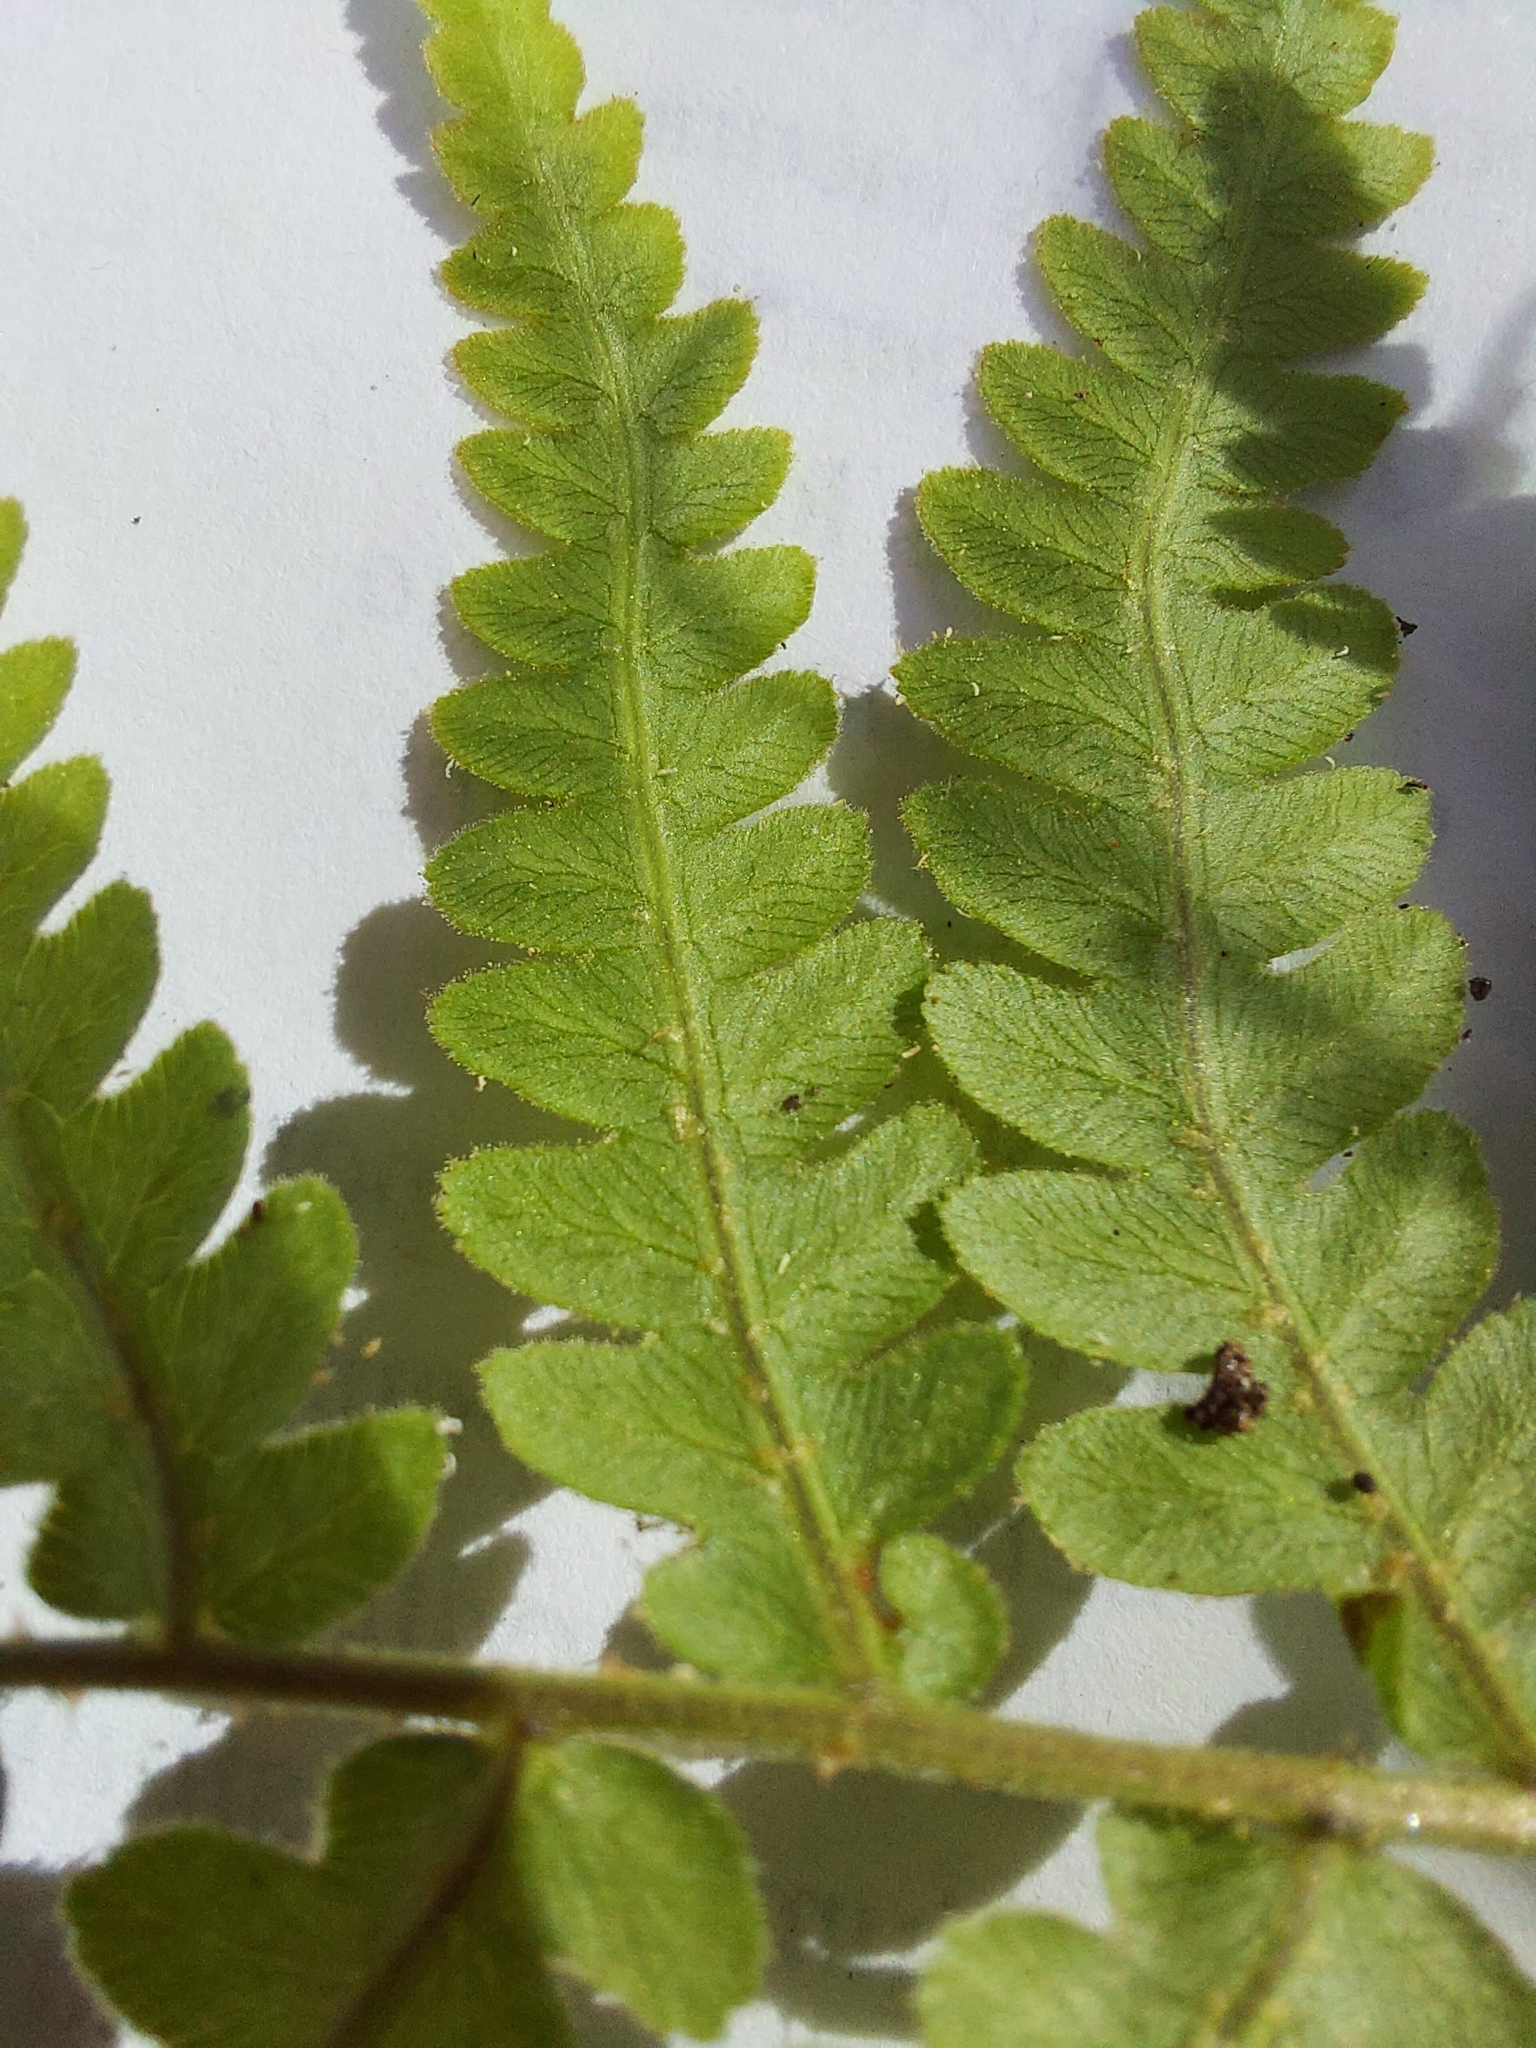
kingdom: Plantae
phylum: Tracheophyta
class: Polypodiopsida
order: Polypodiales
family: Blechnaceae
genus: Anchistea
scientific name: Anchistea virginica
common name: Virginia chain fern
